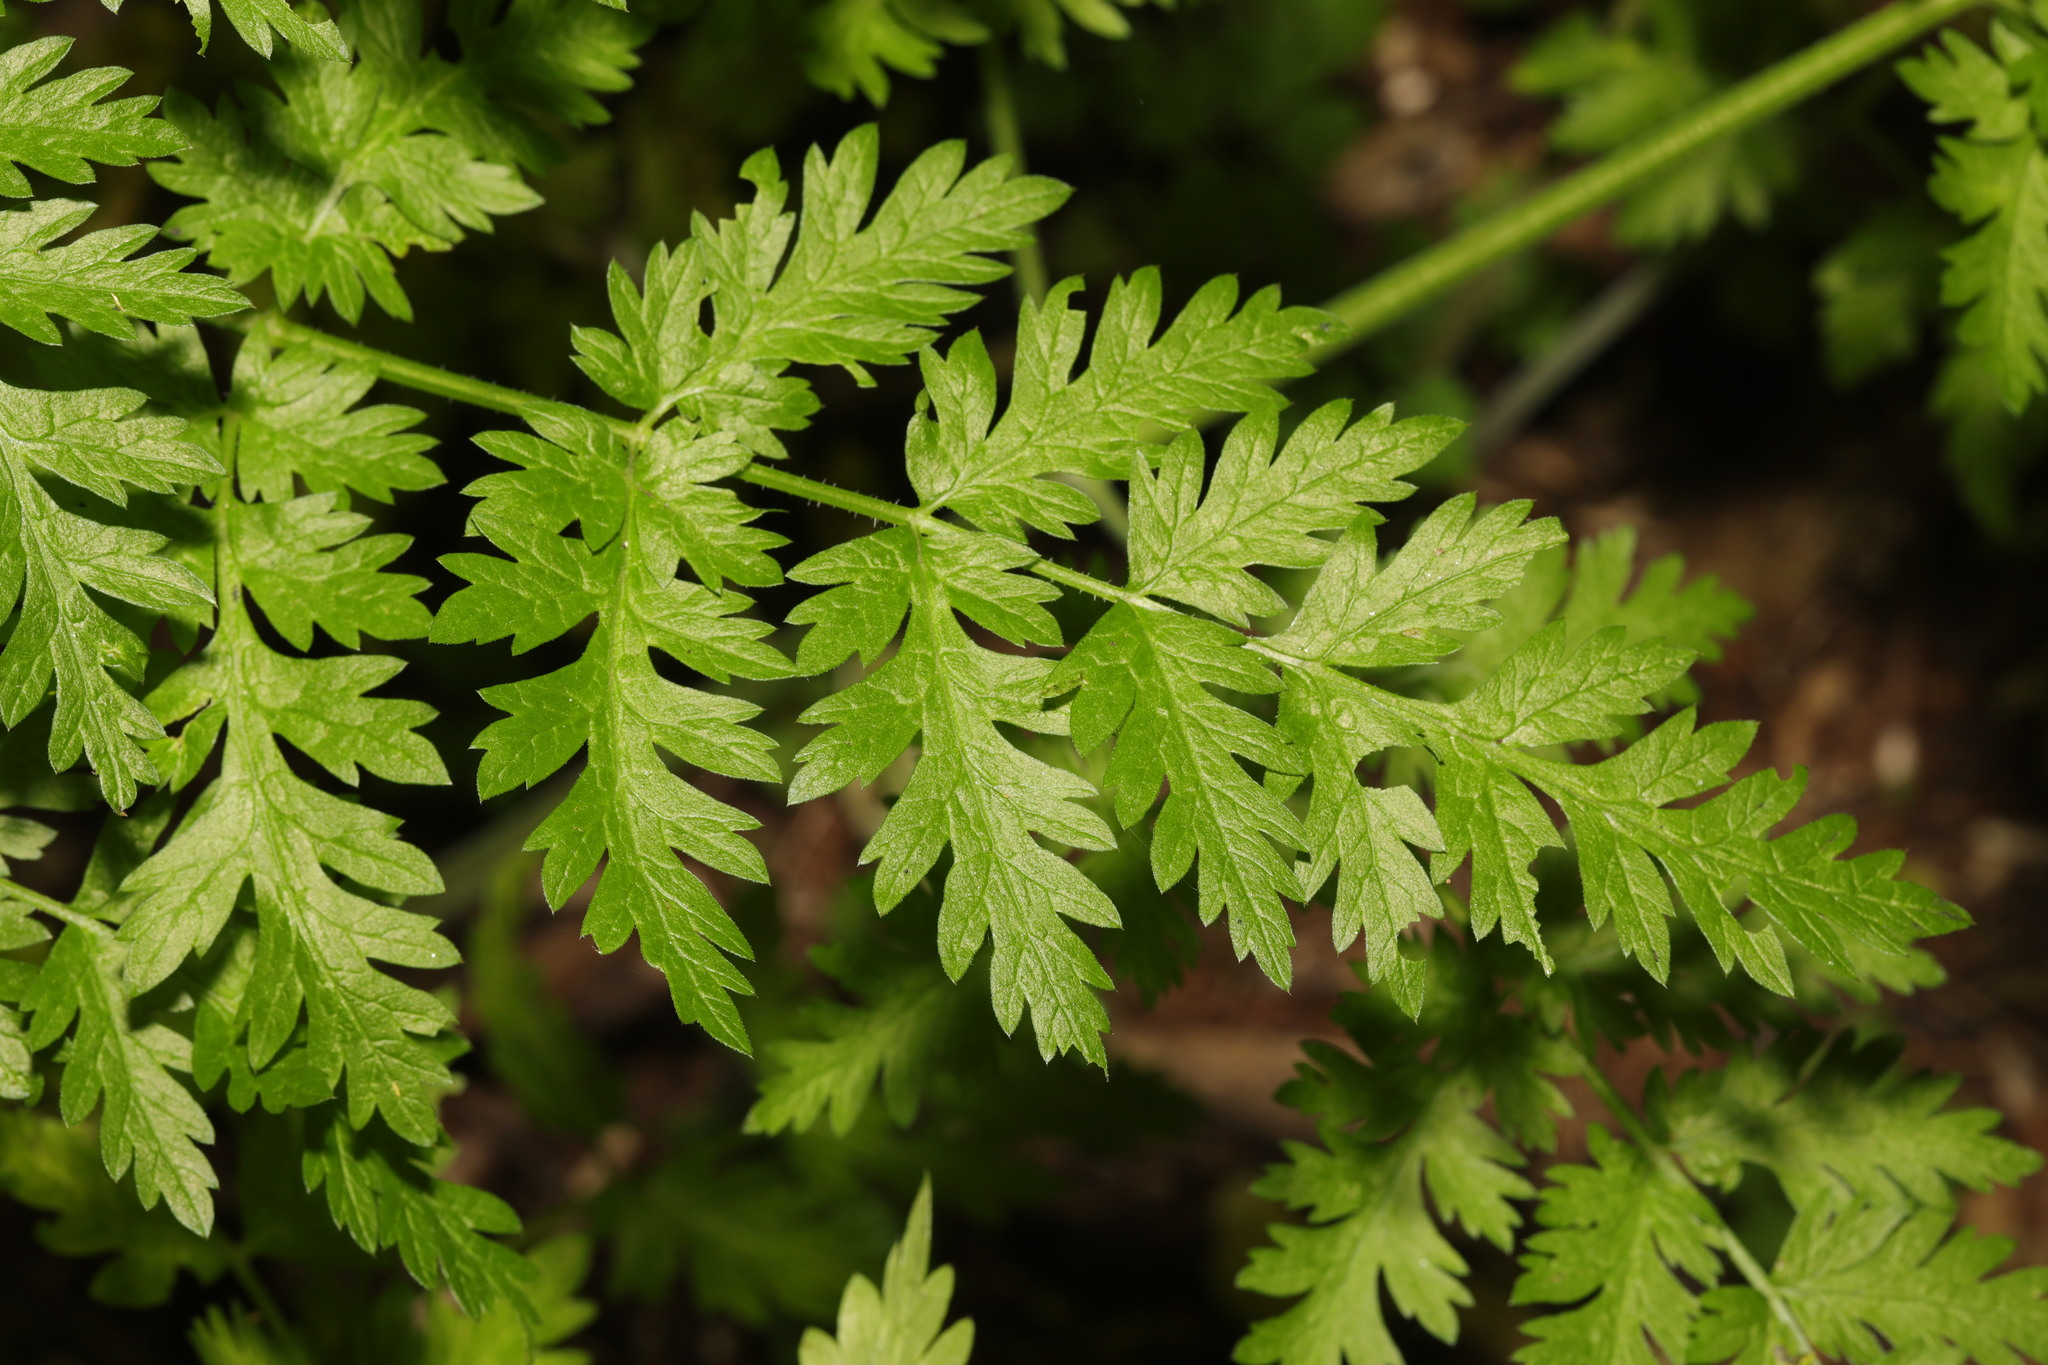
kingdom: Plantae
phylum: Tracheophyta
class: Magnoliopsida
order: Apiales
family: Apiaceae
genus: Anthriscus
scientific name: Anthriscus sylvestris
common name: Cow parsley
